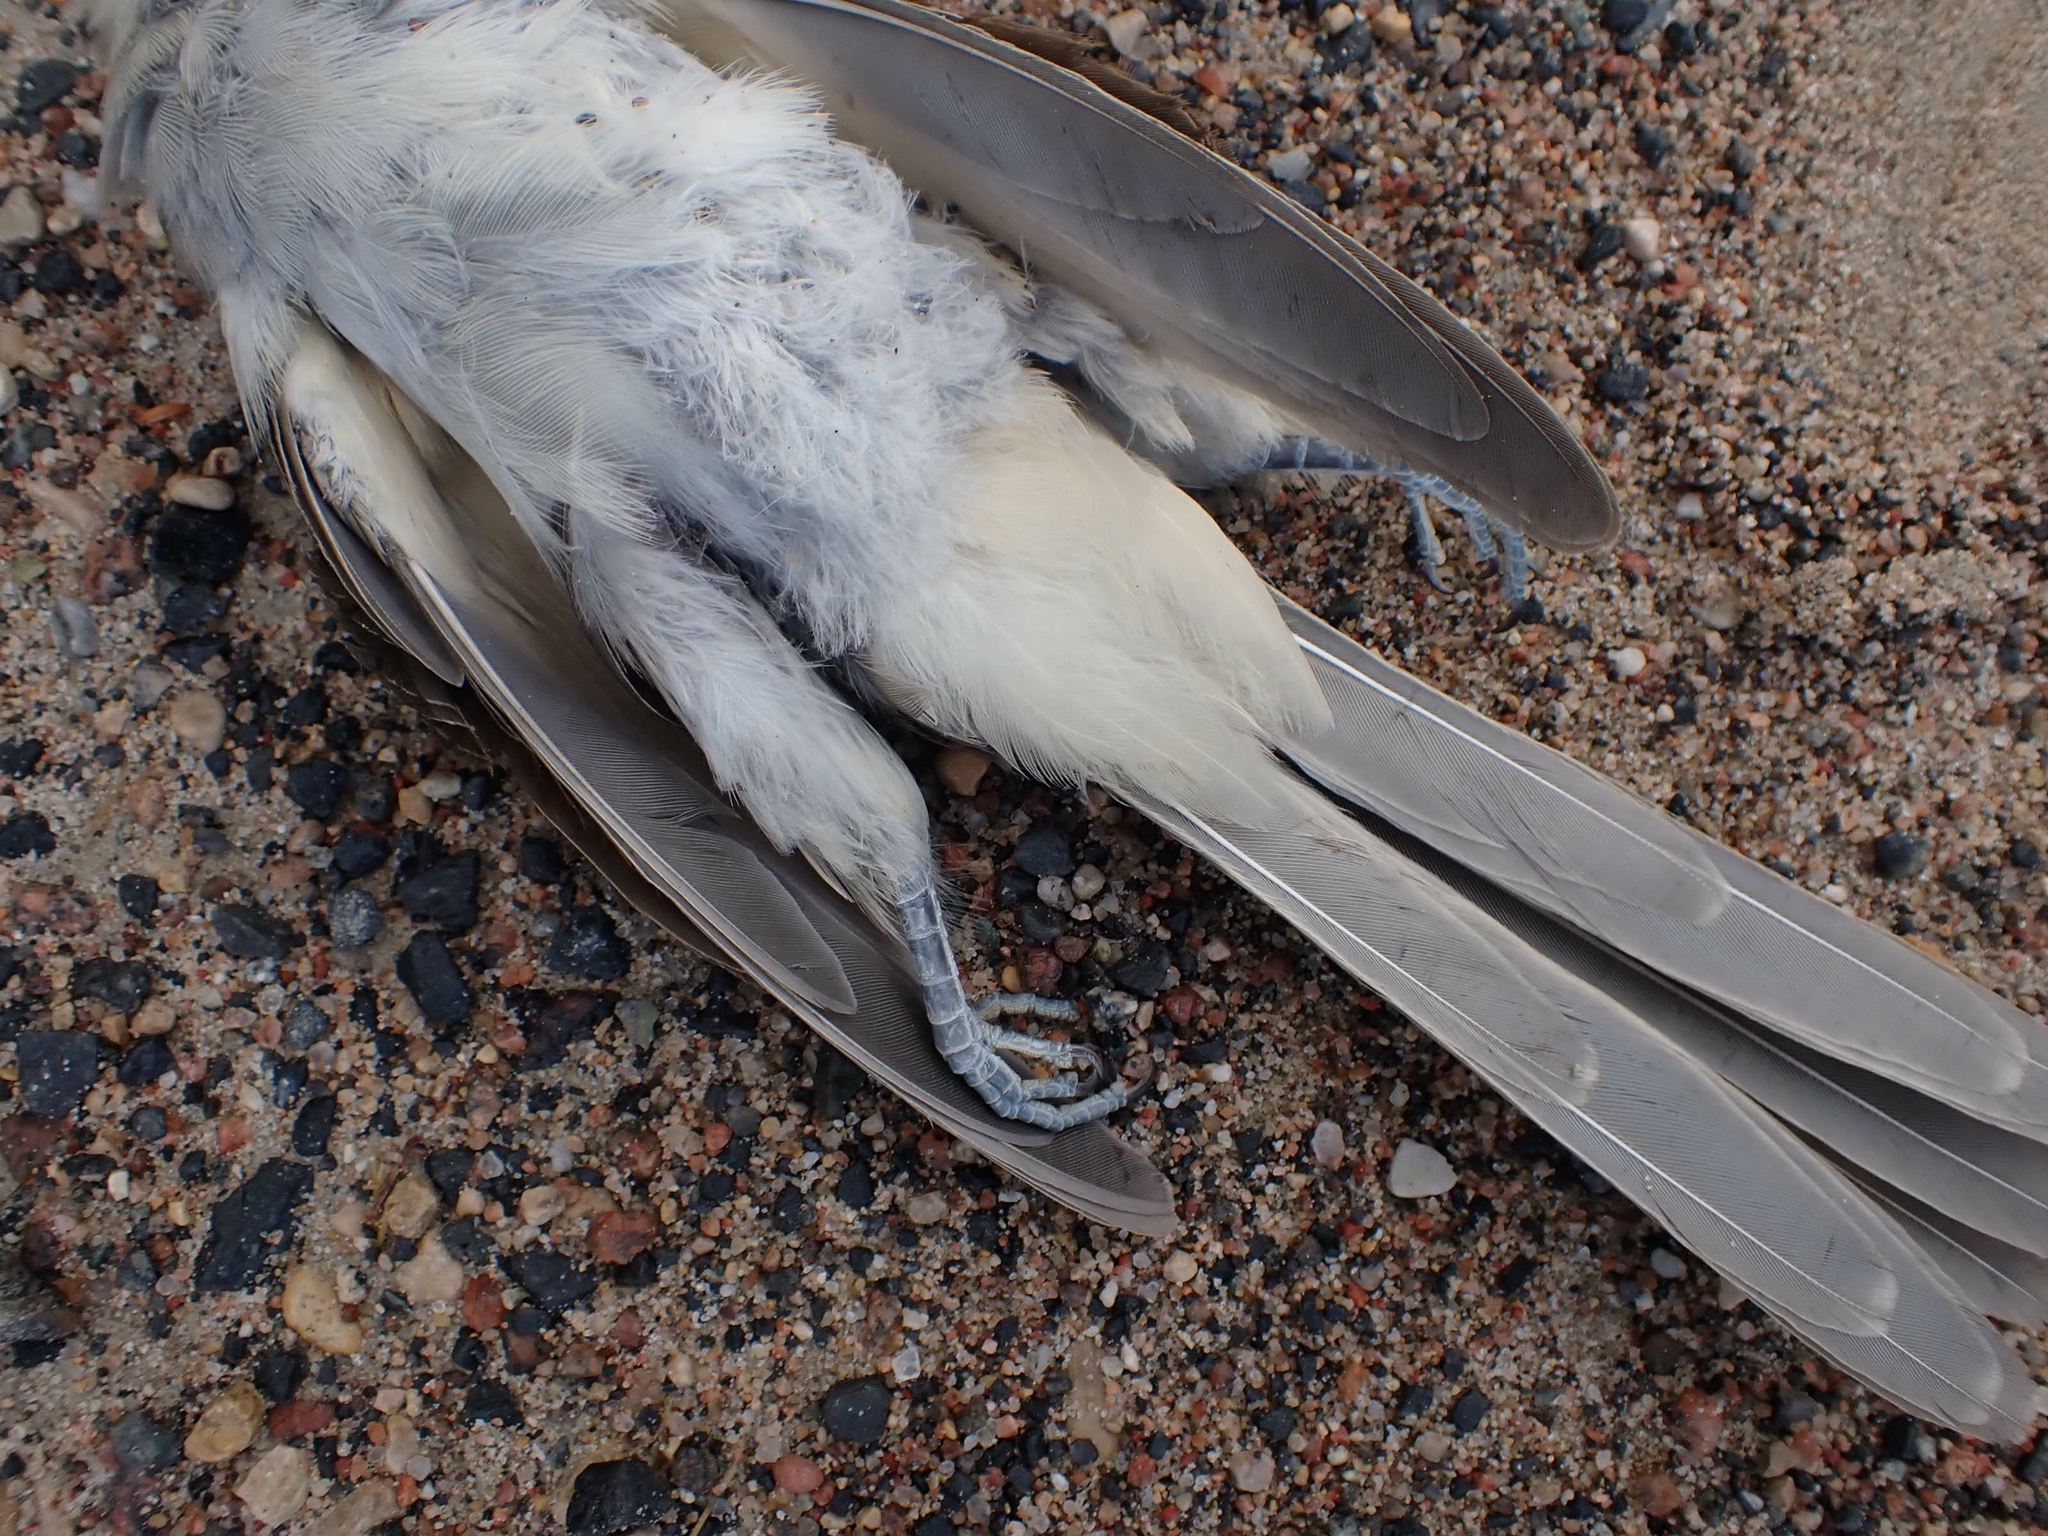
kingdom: Animalia
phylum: Chordata
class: Aves
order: Cuculiformes
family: Cuculidae
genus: Coccyzus
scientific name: Coccyzus erythropthalmus
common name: Black-billed cuckoo
